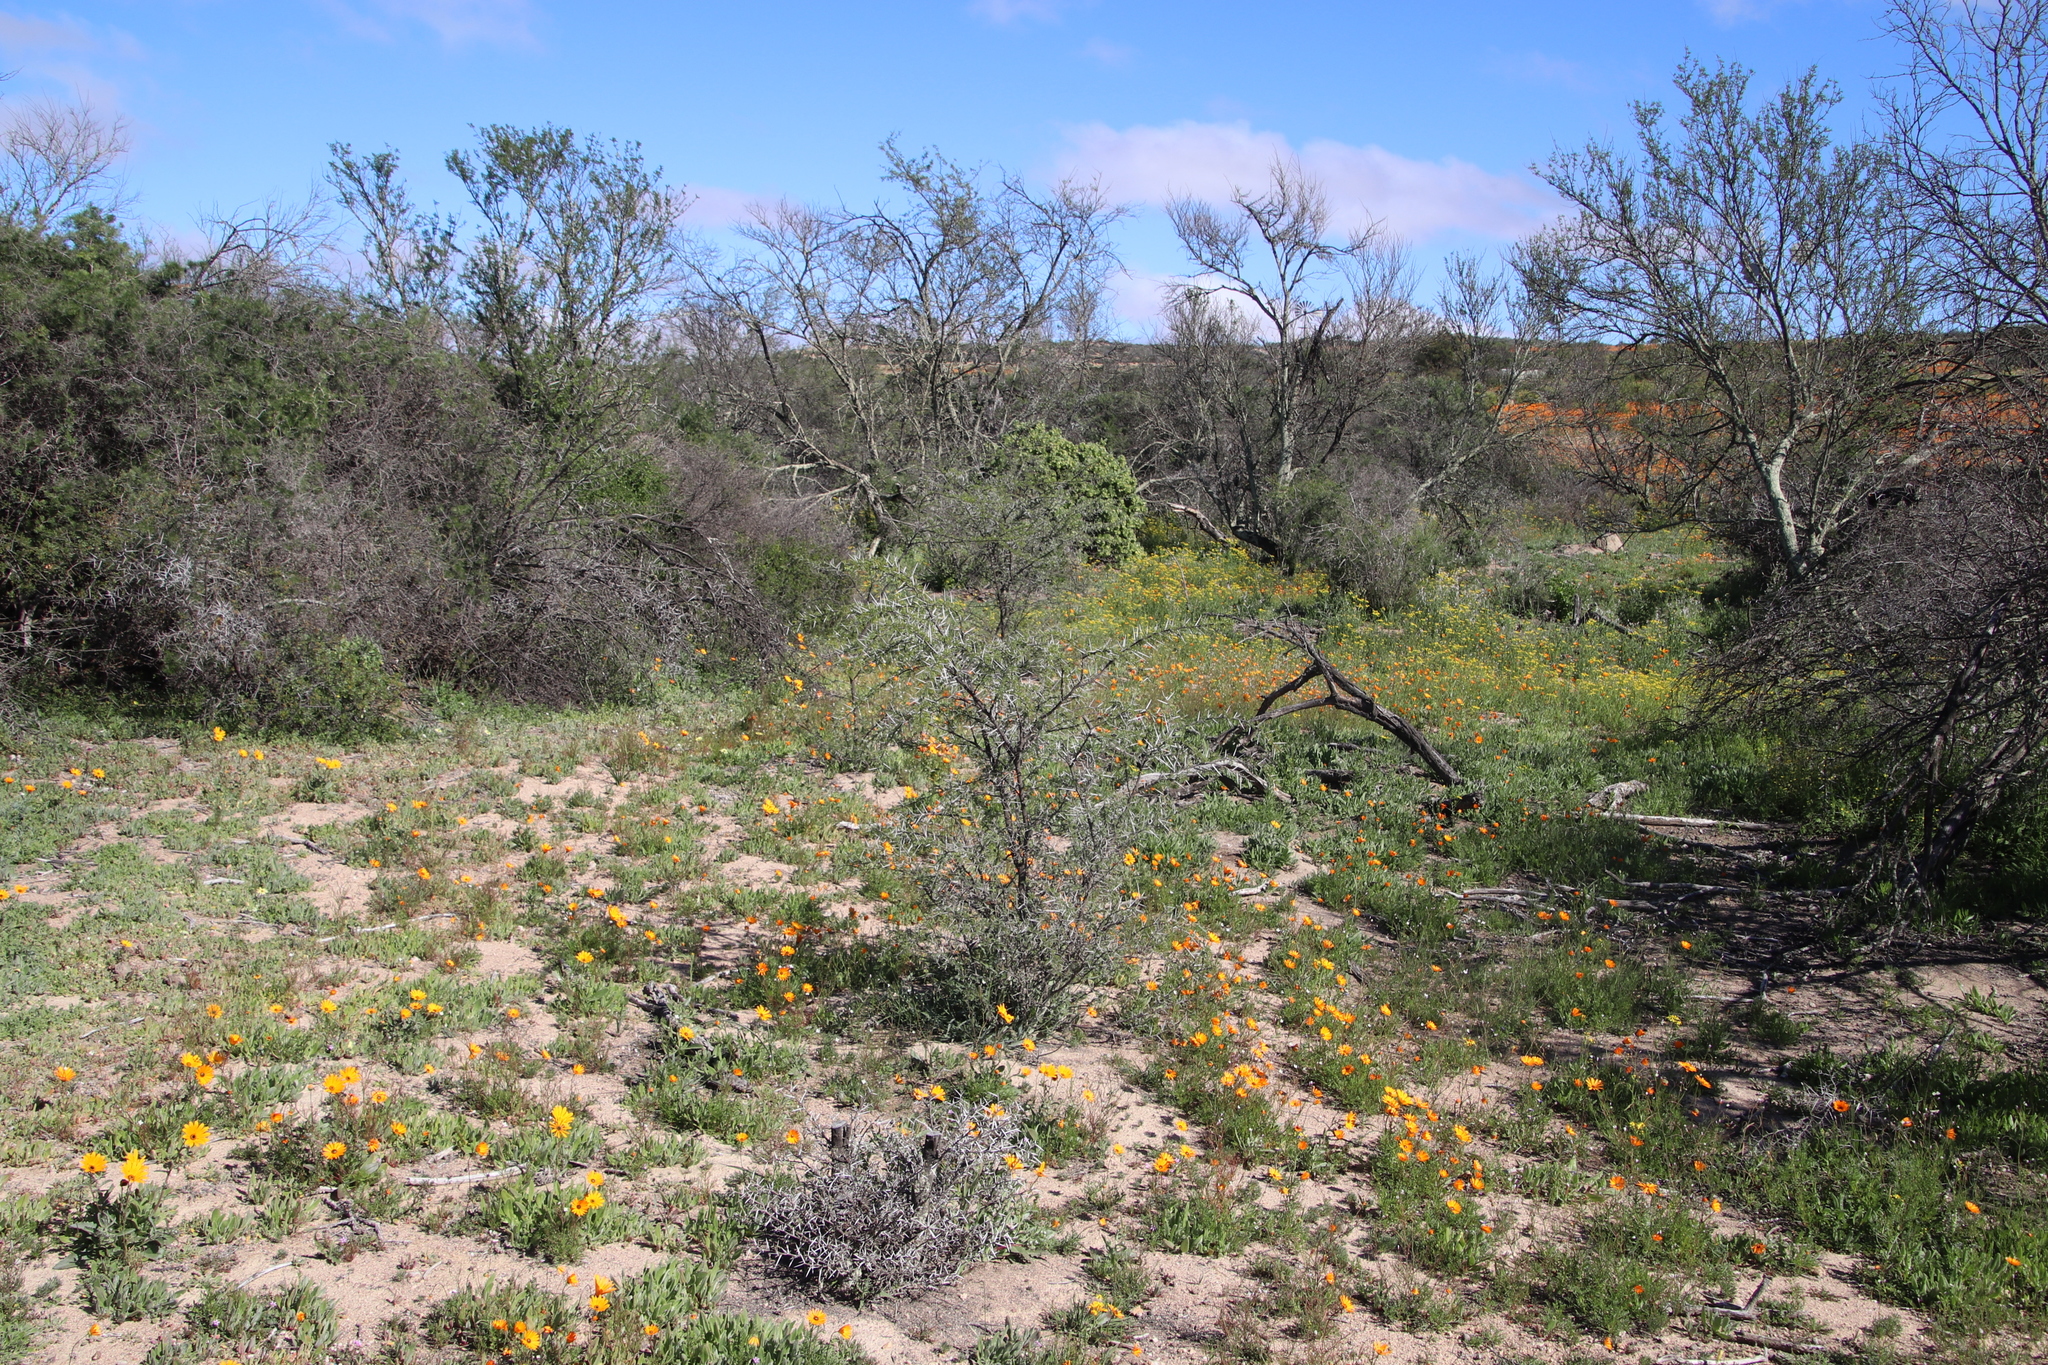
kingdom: Plantae
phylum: Tracheophyta
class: Magnoliopsida
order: Fabales
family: Fabaceae
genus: Vachellia
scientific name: Vachellia karroo
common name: Sweet thorn
